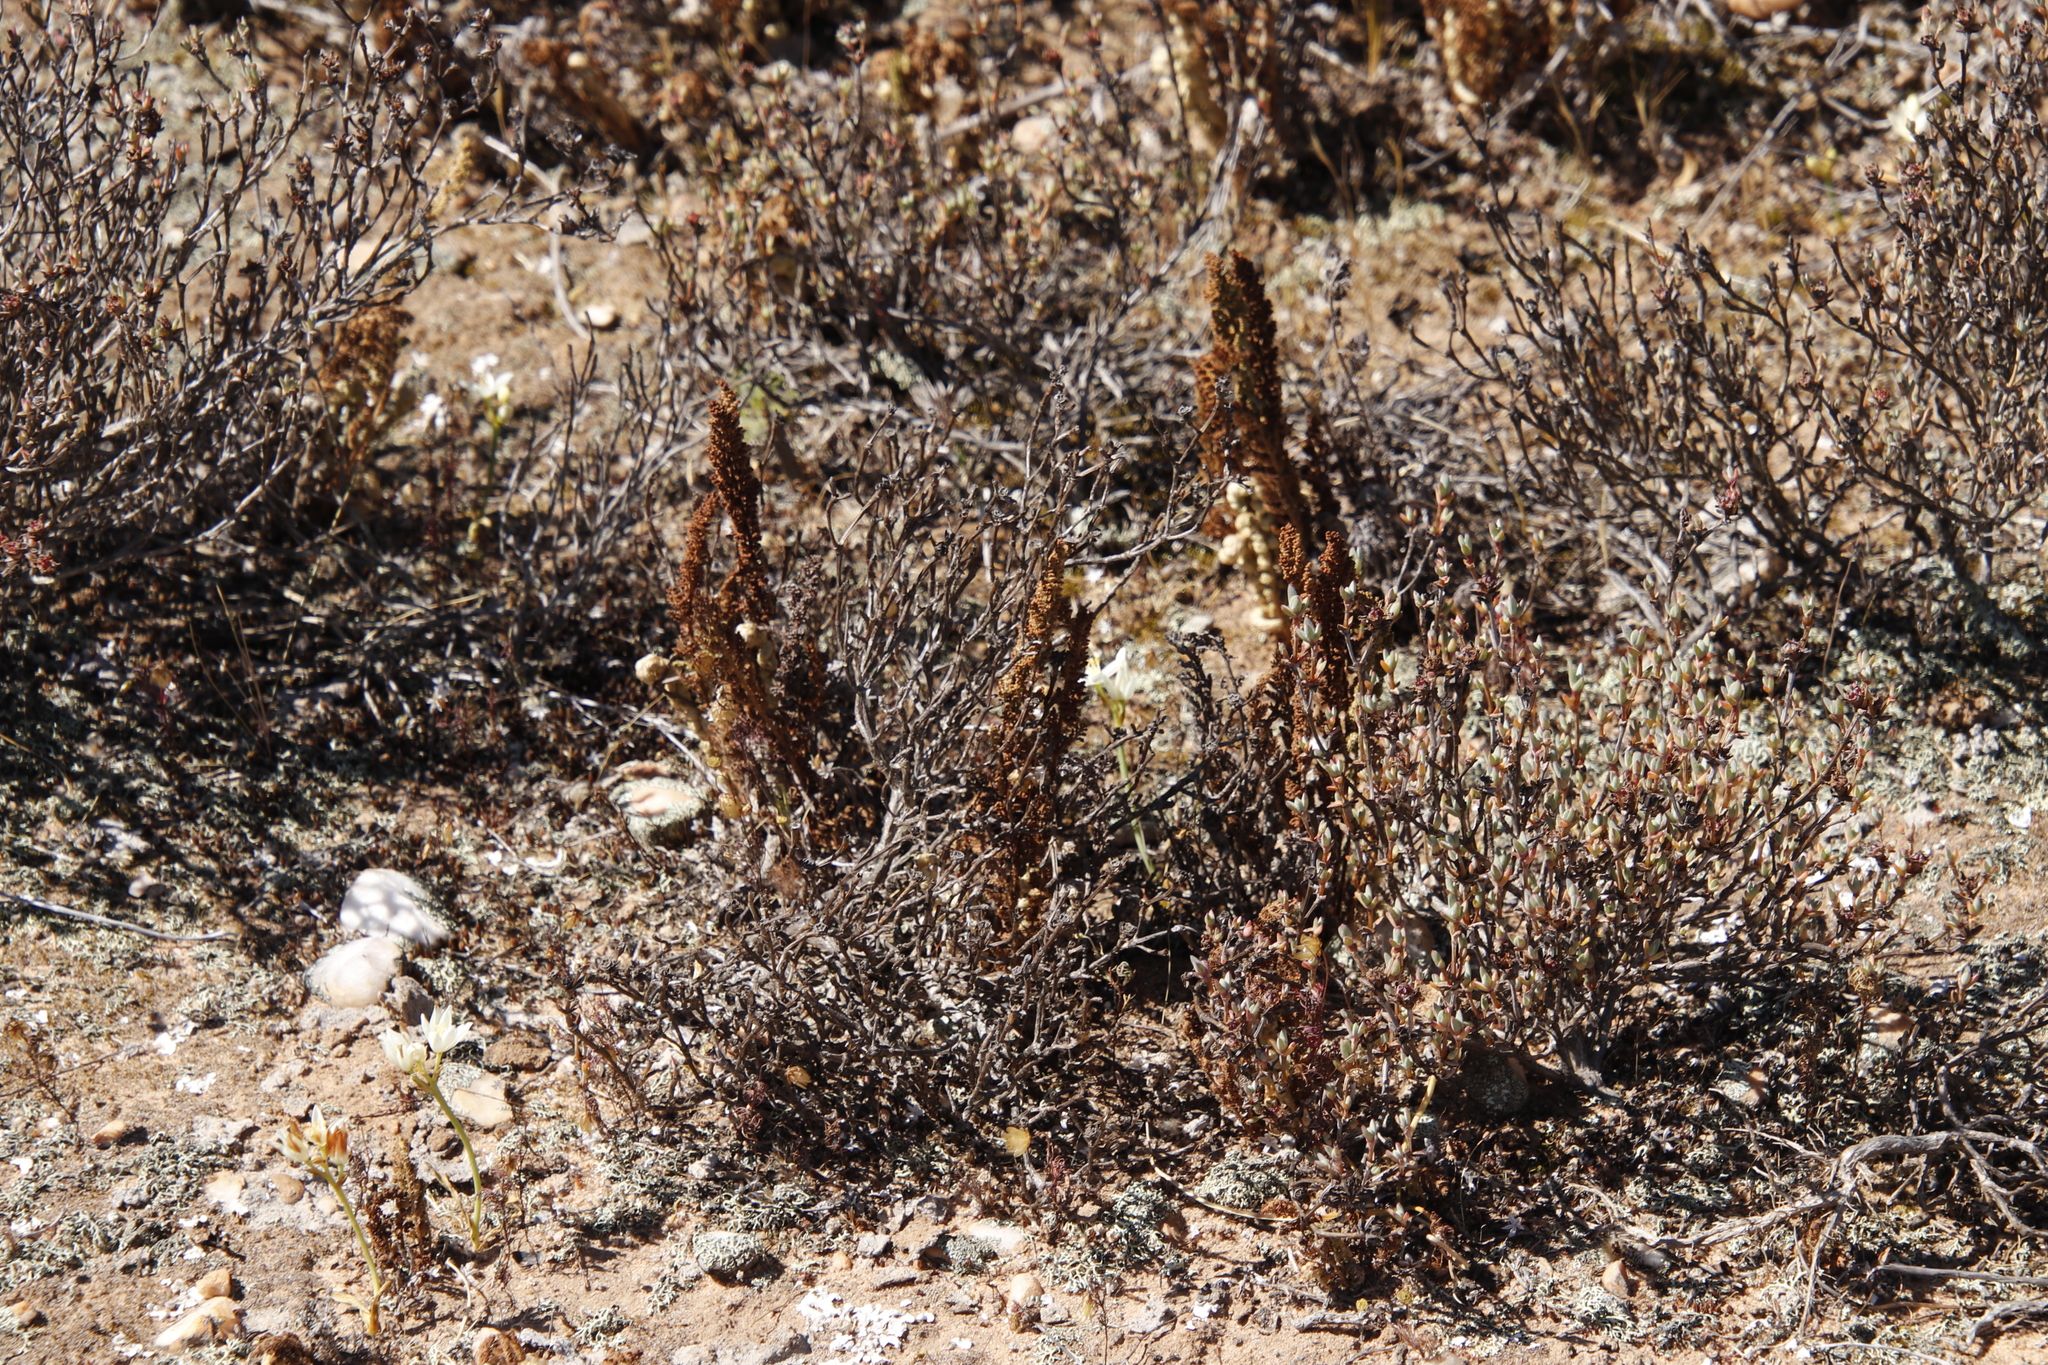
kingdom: Plantae
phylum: Tracheophyta
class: Polypodiopsida
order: Schizaeales
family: Anemiaceae
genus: Anemia
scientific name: Anemia caffrorum
